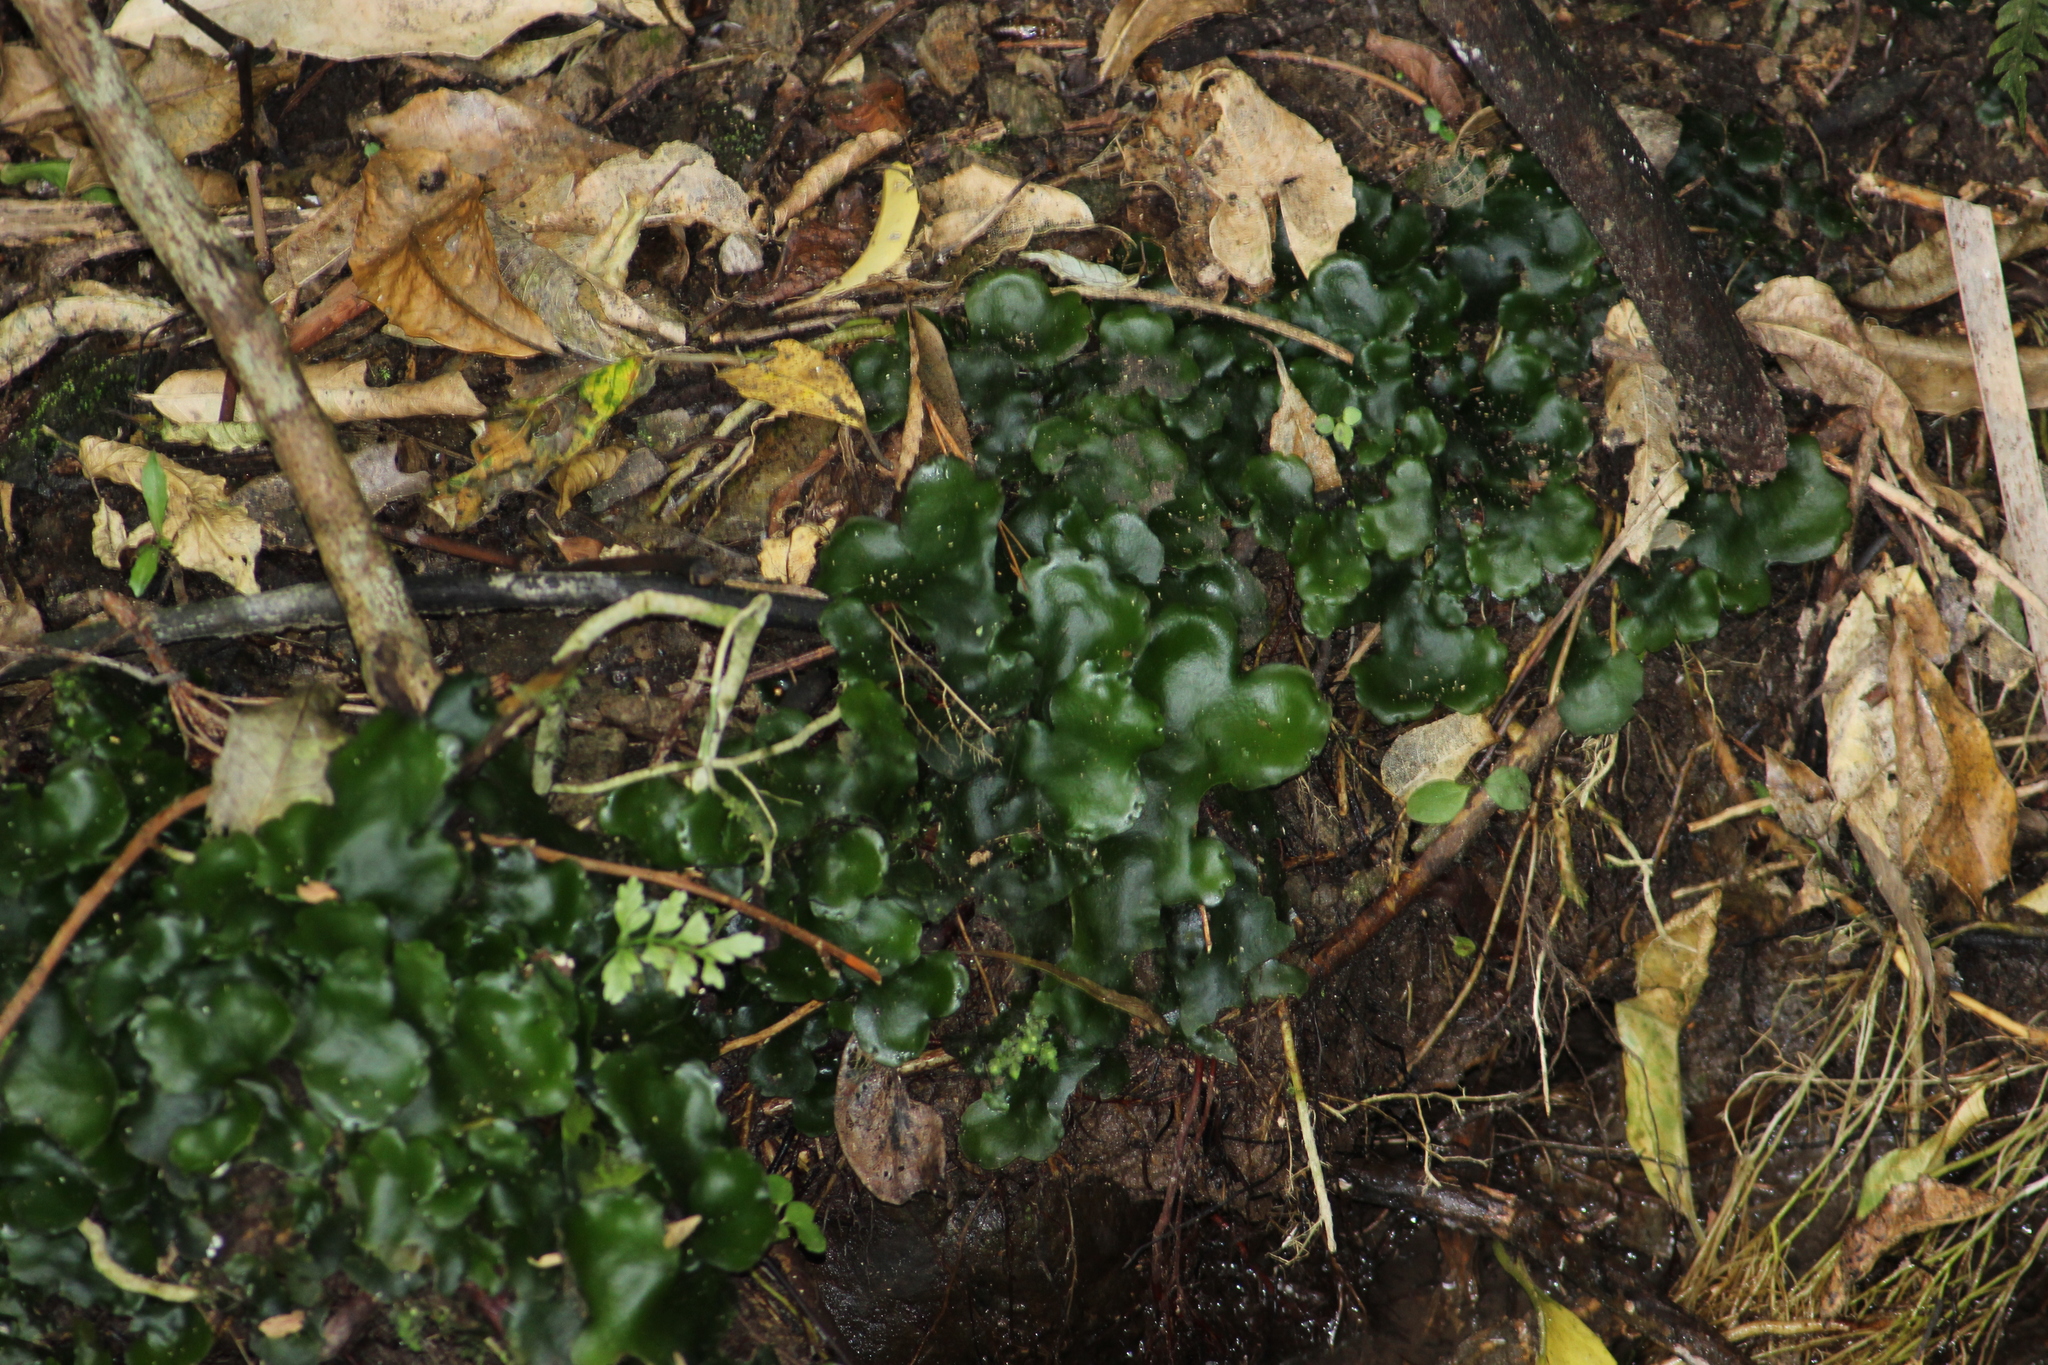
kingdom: Plantae
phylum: Marchantiophyta
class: Marchantiopsida
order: Marchantiales
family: Monocleaceae
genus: Monoclea
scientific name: Monoclea forsteri
